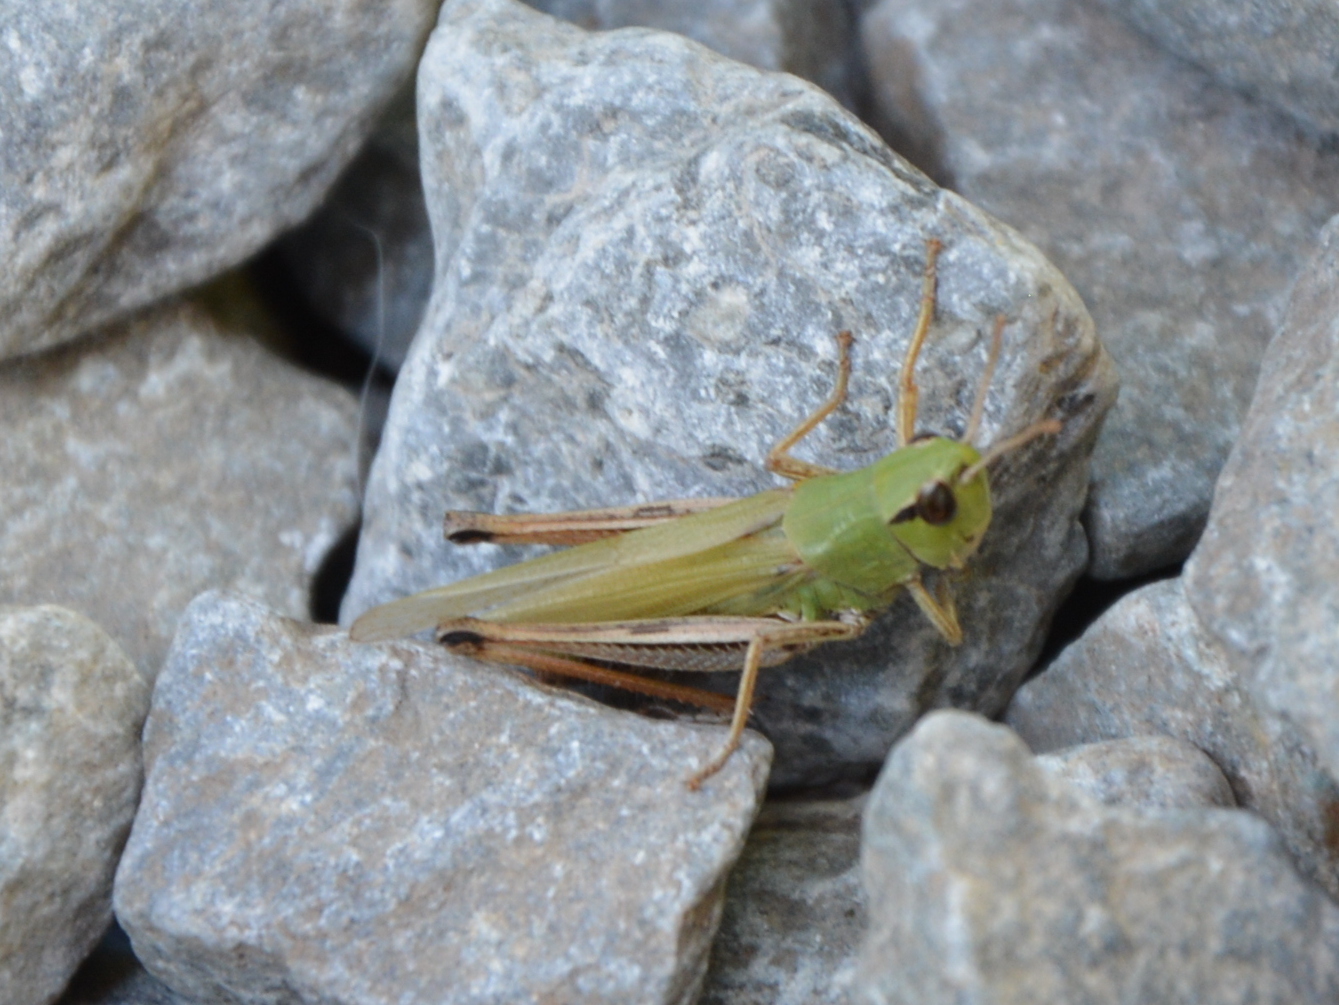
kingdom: Animalia
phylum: Arthropoda
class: Insecta
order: Orthoptera
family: Acrididae
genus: Pseudochorthippus
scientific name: Pseudochorthippus parallelus
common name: Meadow grasshopper
